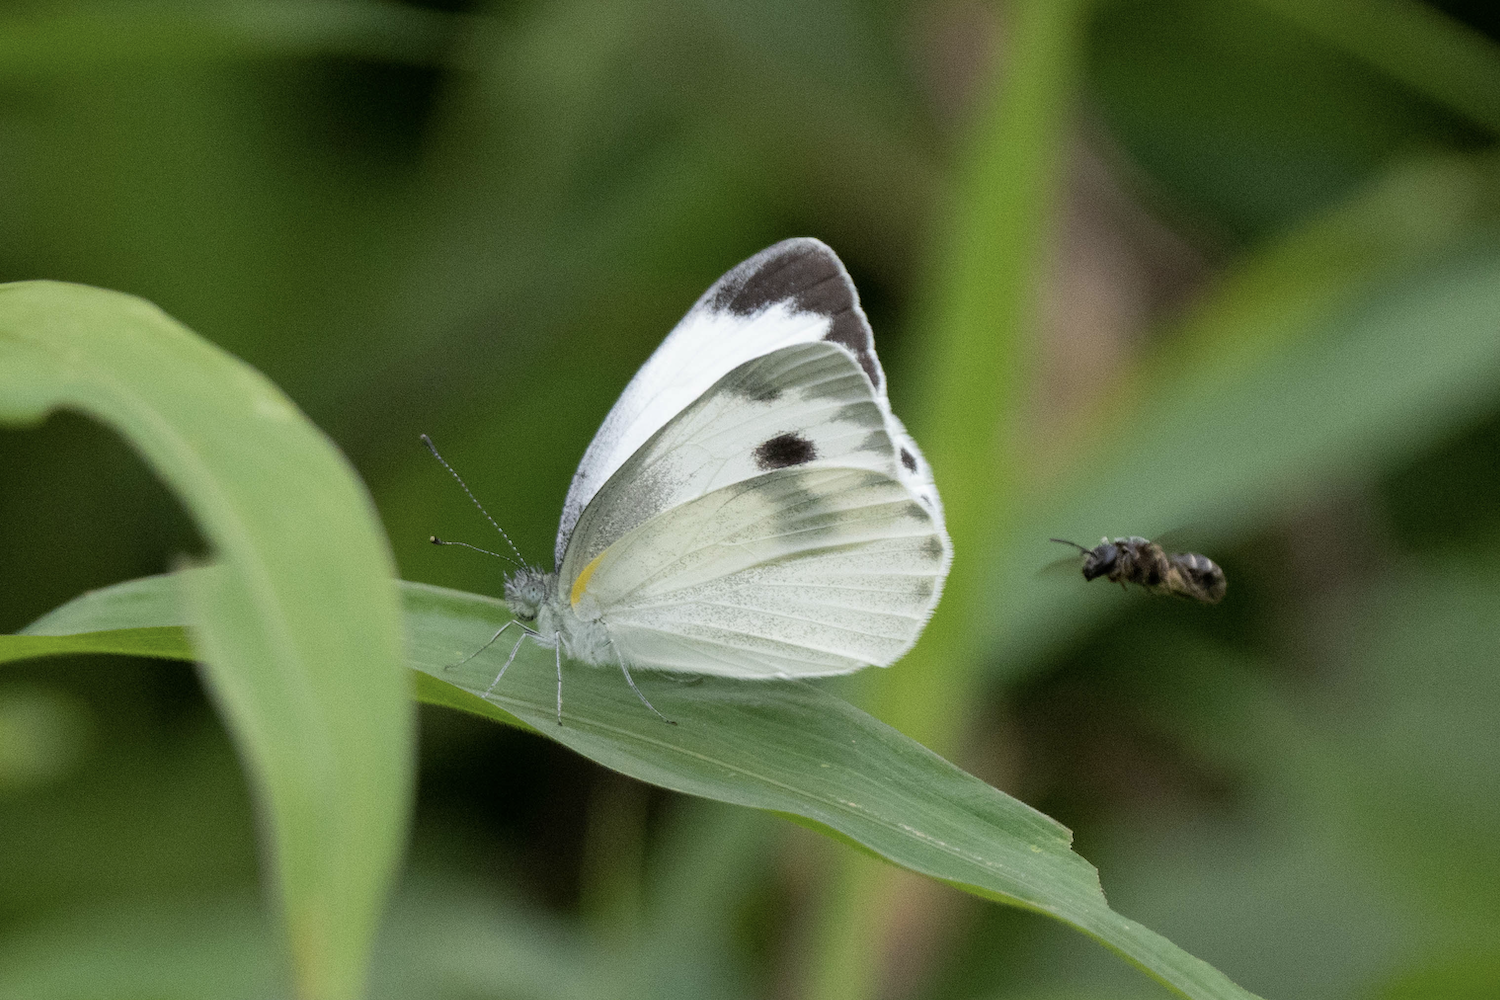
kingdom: Animalia
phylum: Arthropoda
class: Insecta
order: Lepidoptera
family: Pieridae
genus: Pieris
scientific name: Pieris canidia
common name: Indian cabbage white
